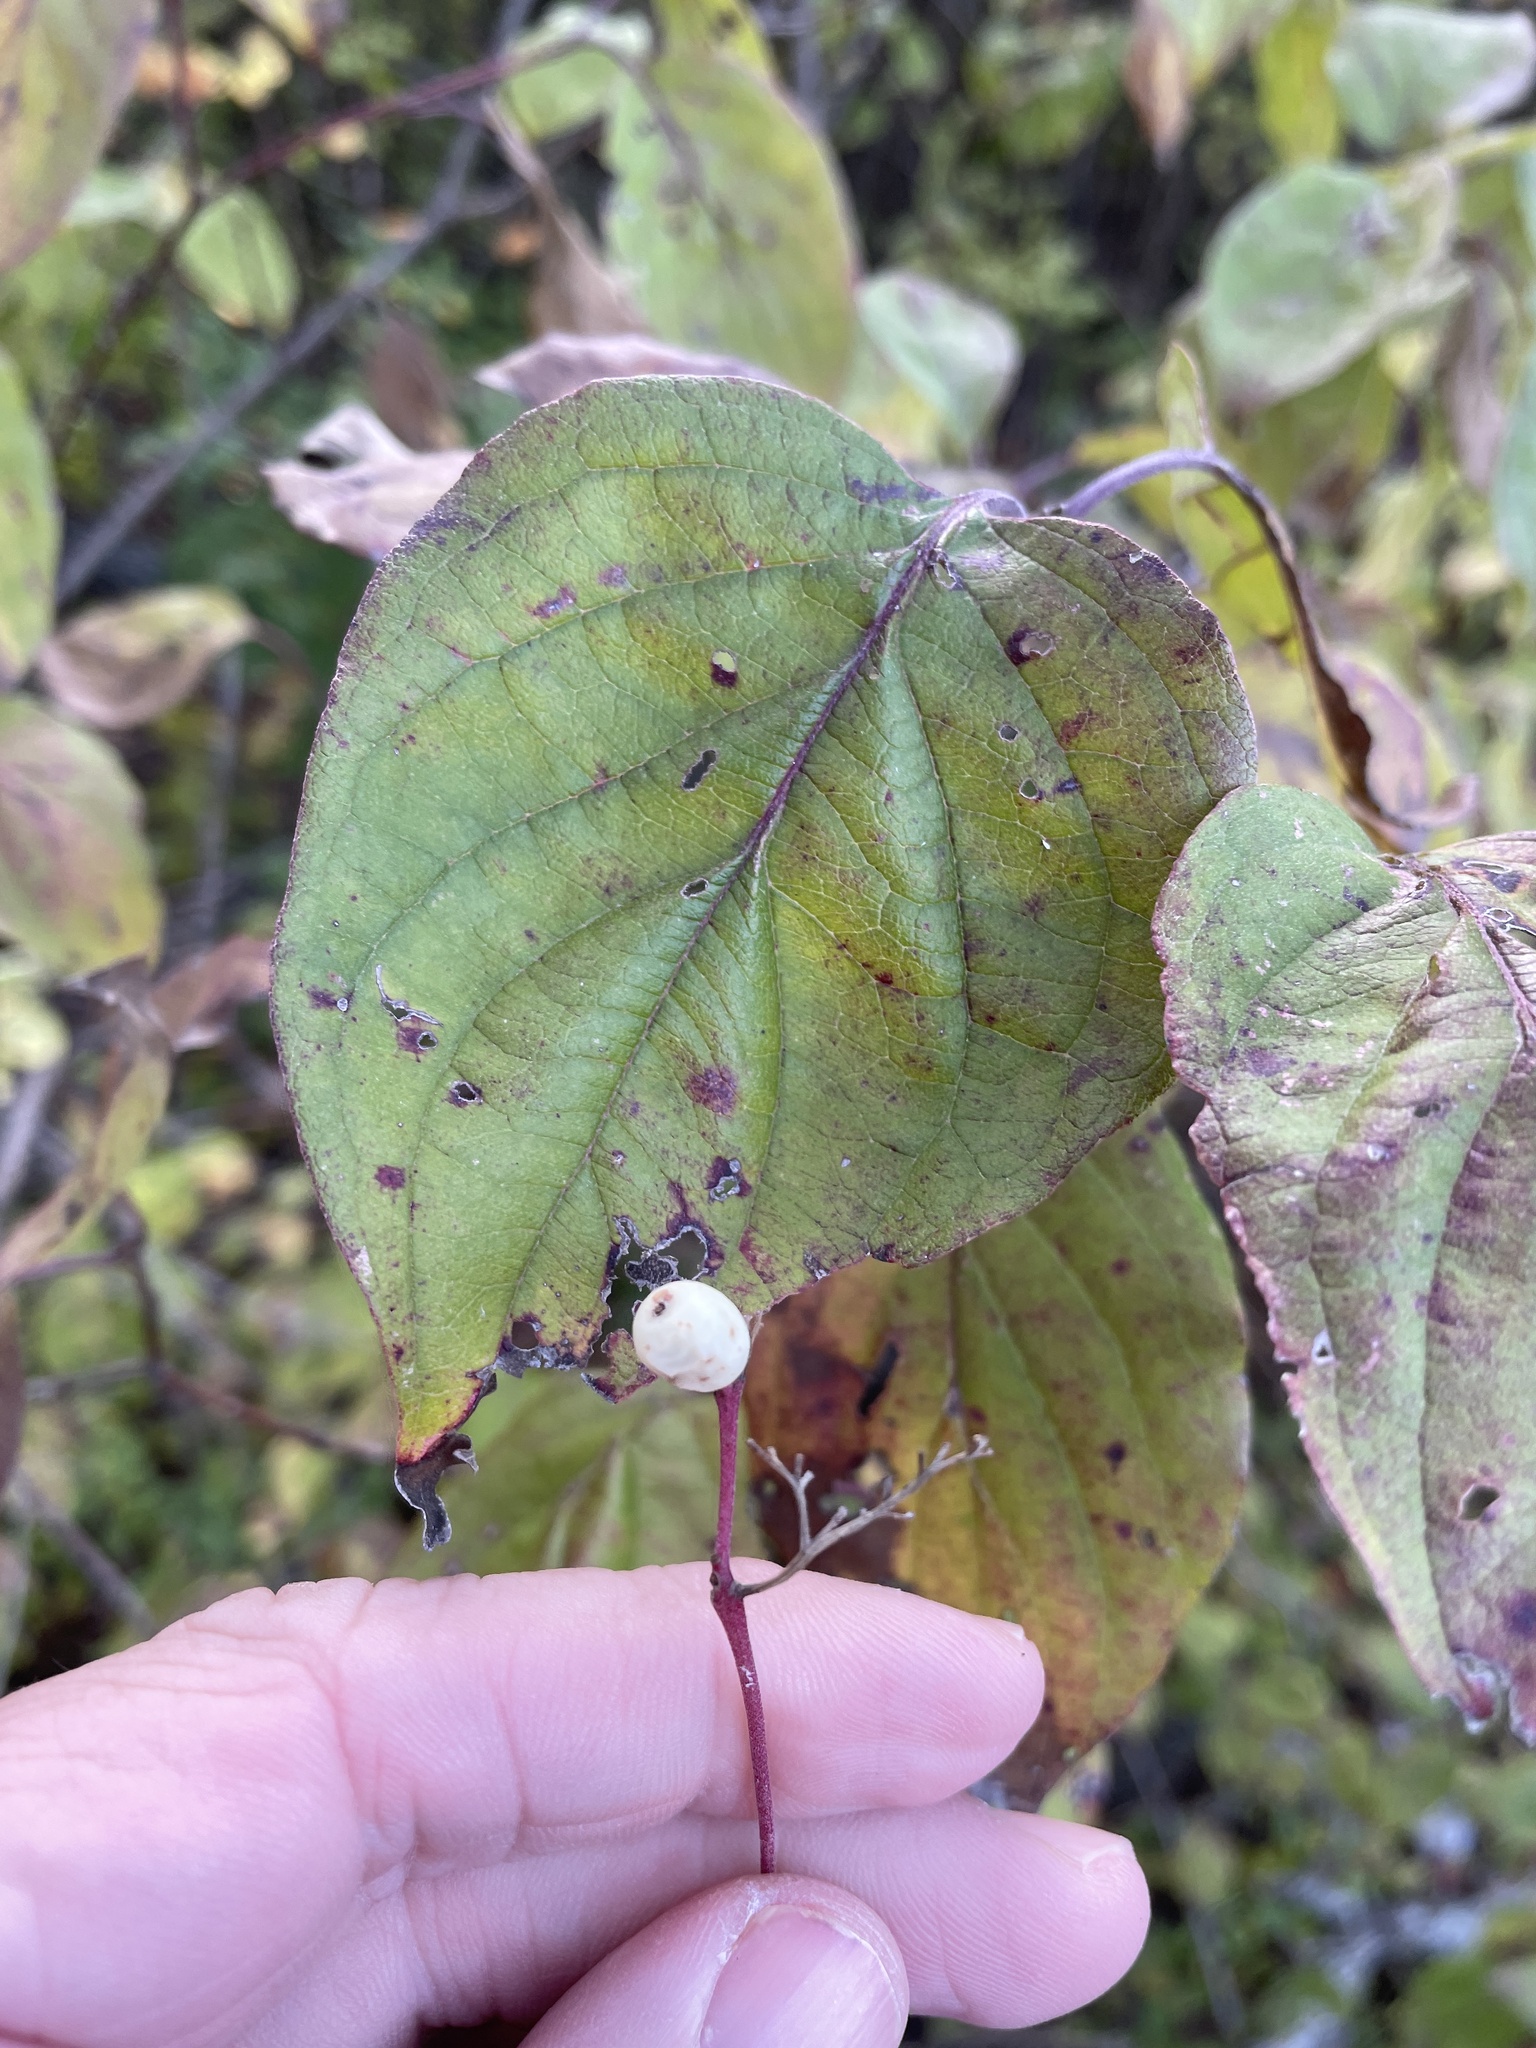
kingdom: Plantae
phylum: Tracheophyta
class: Magnoliopsida
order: Cornales
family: Cornaceae
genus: Cornus
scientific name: Cornus drummondii
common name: Rough-leaf dogwood
